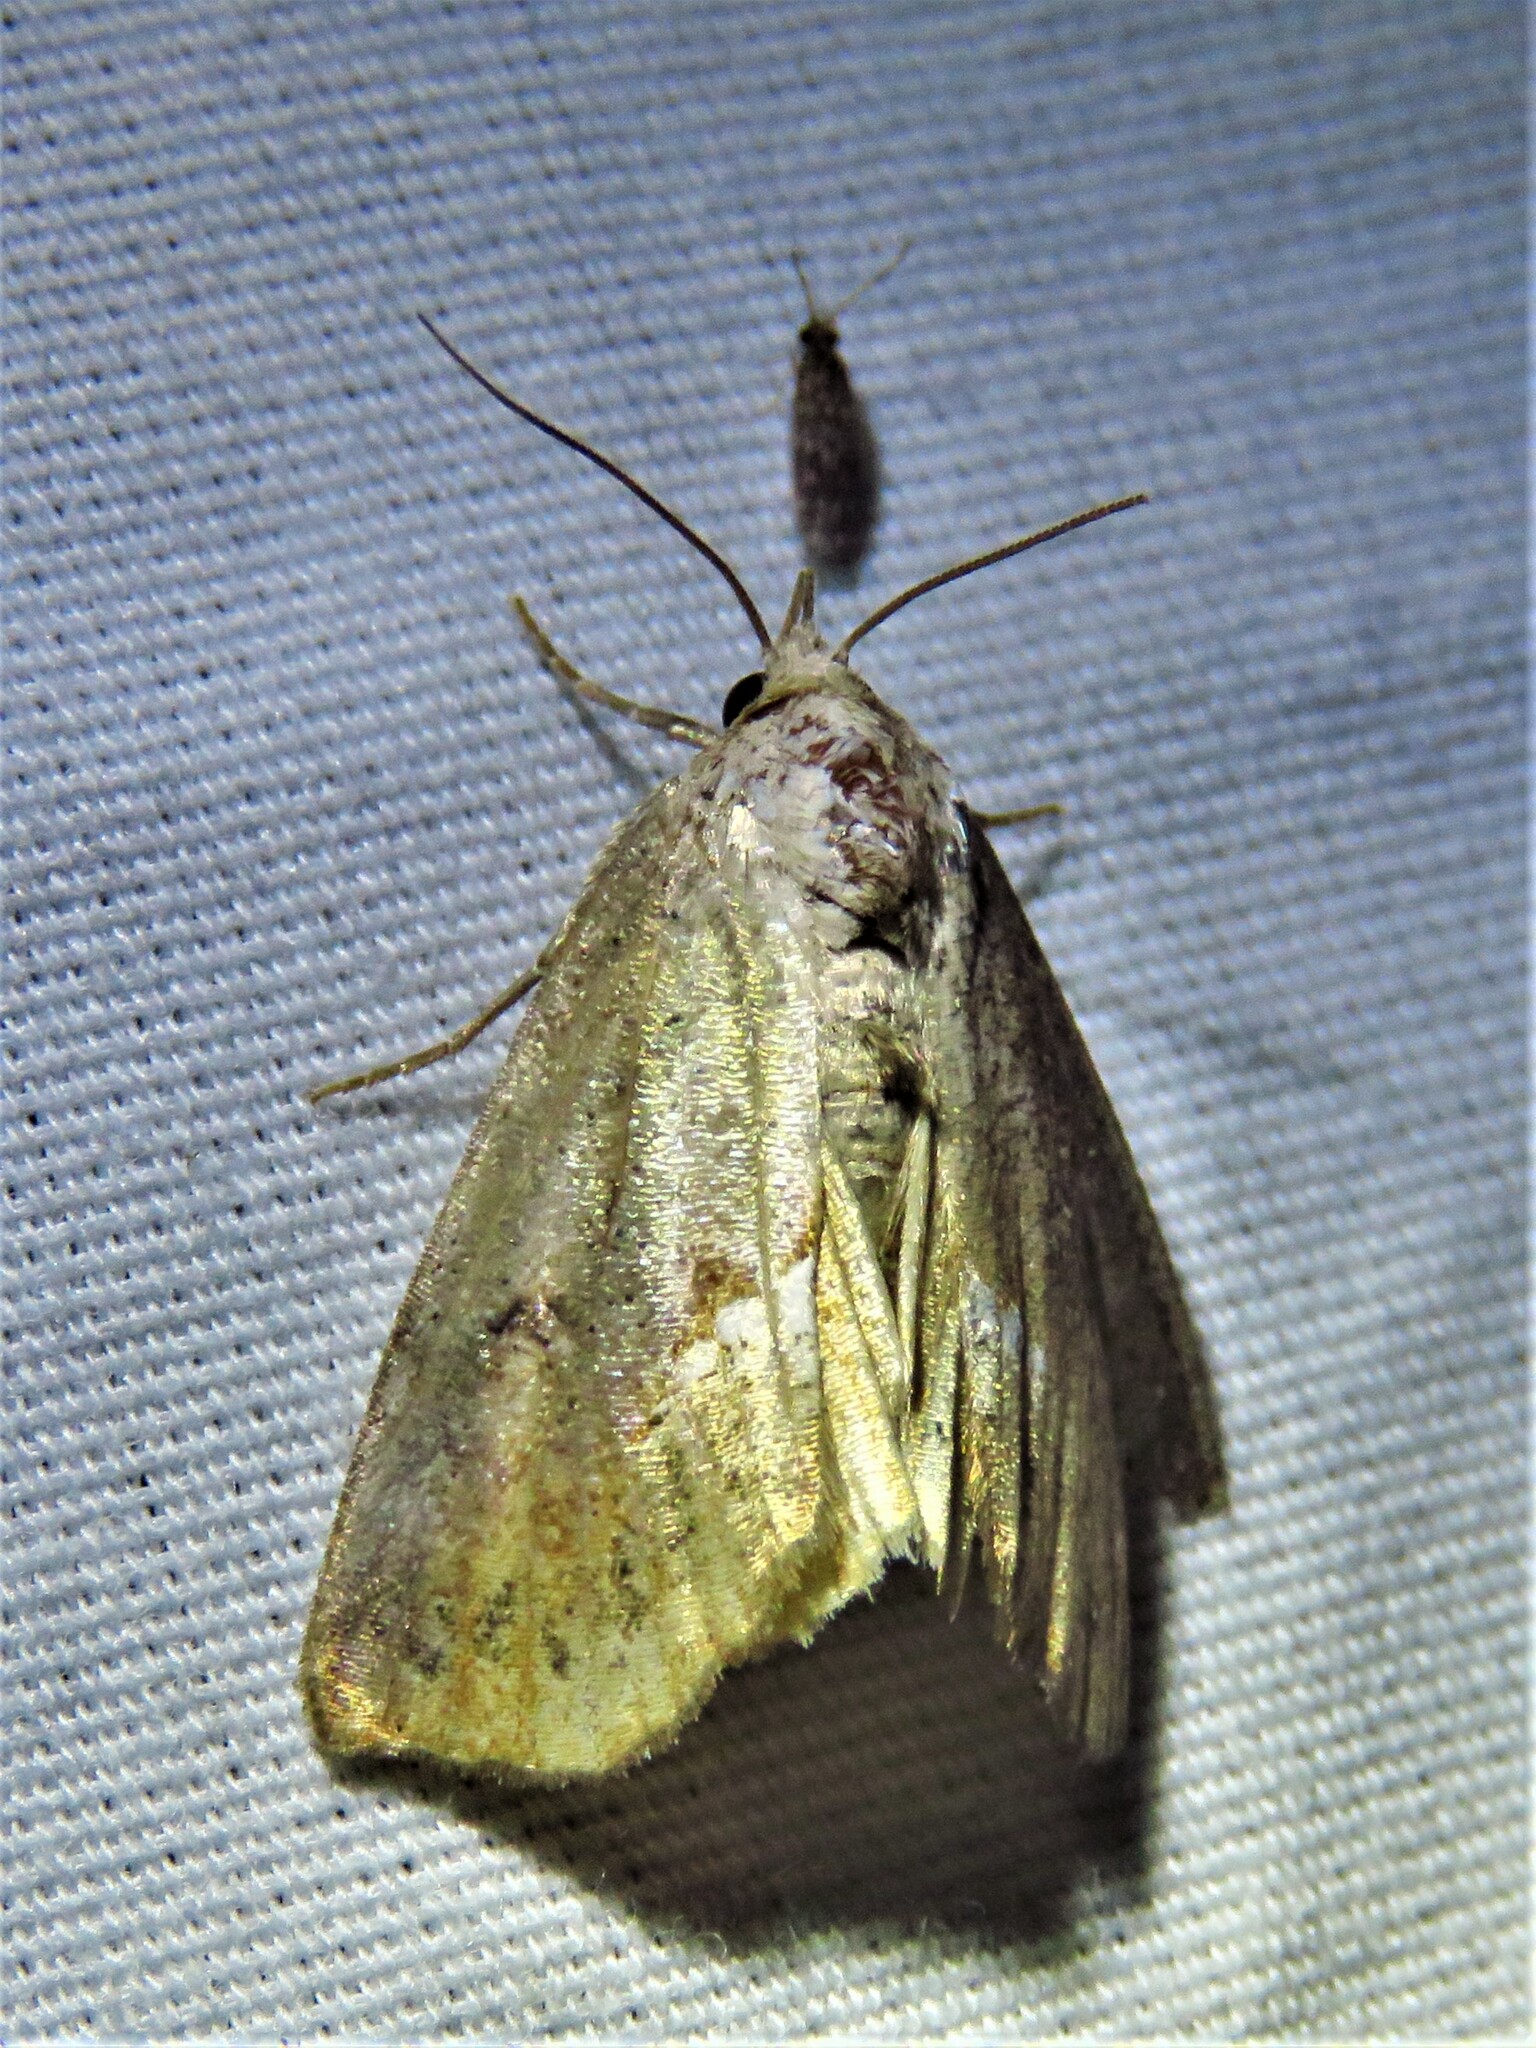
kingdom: Animalia
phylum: Arthropoda
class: Insecta
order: Lepidoptera
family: Erebidae
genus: Hypsoropha
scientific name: Hypsoropha hormos
